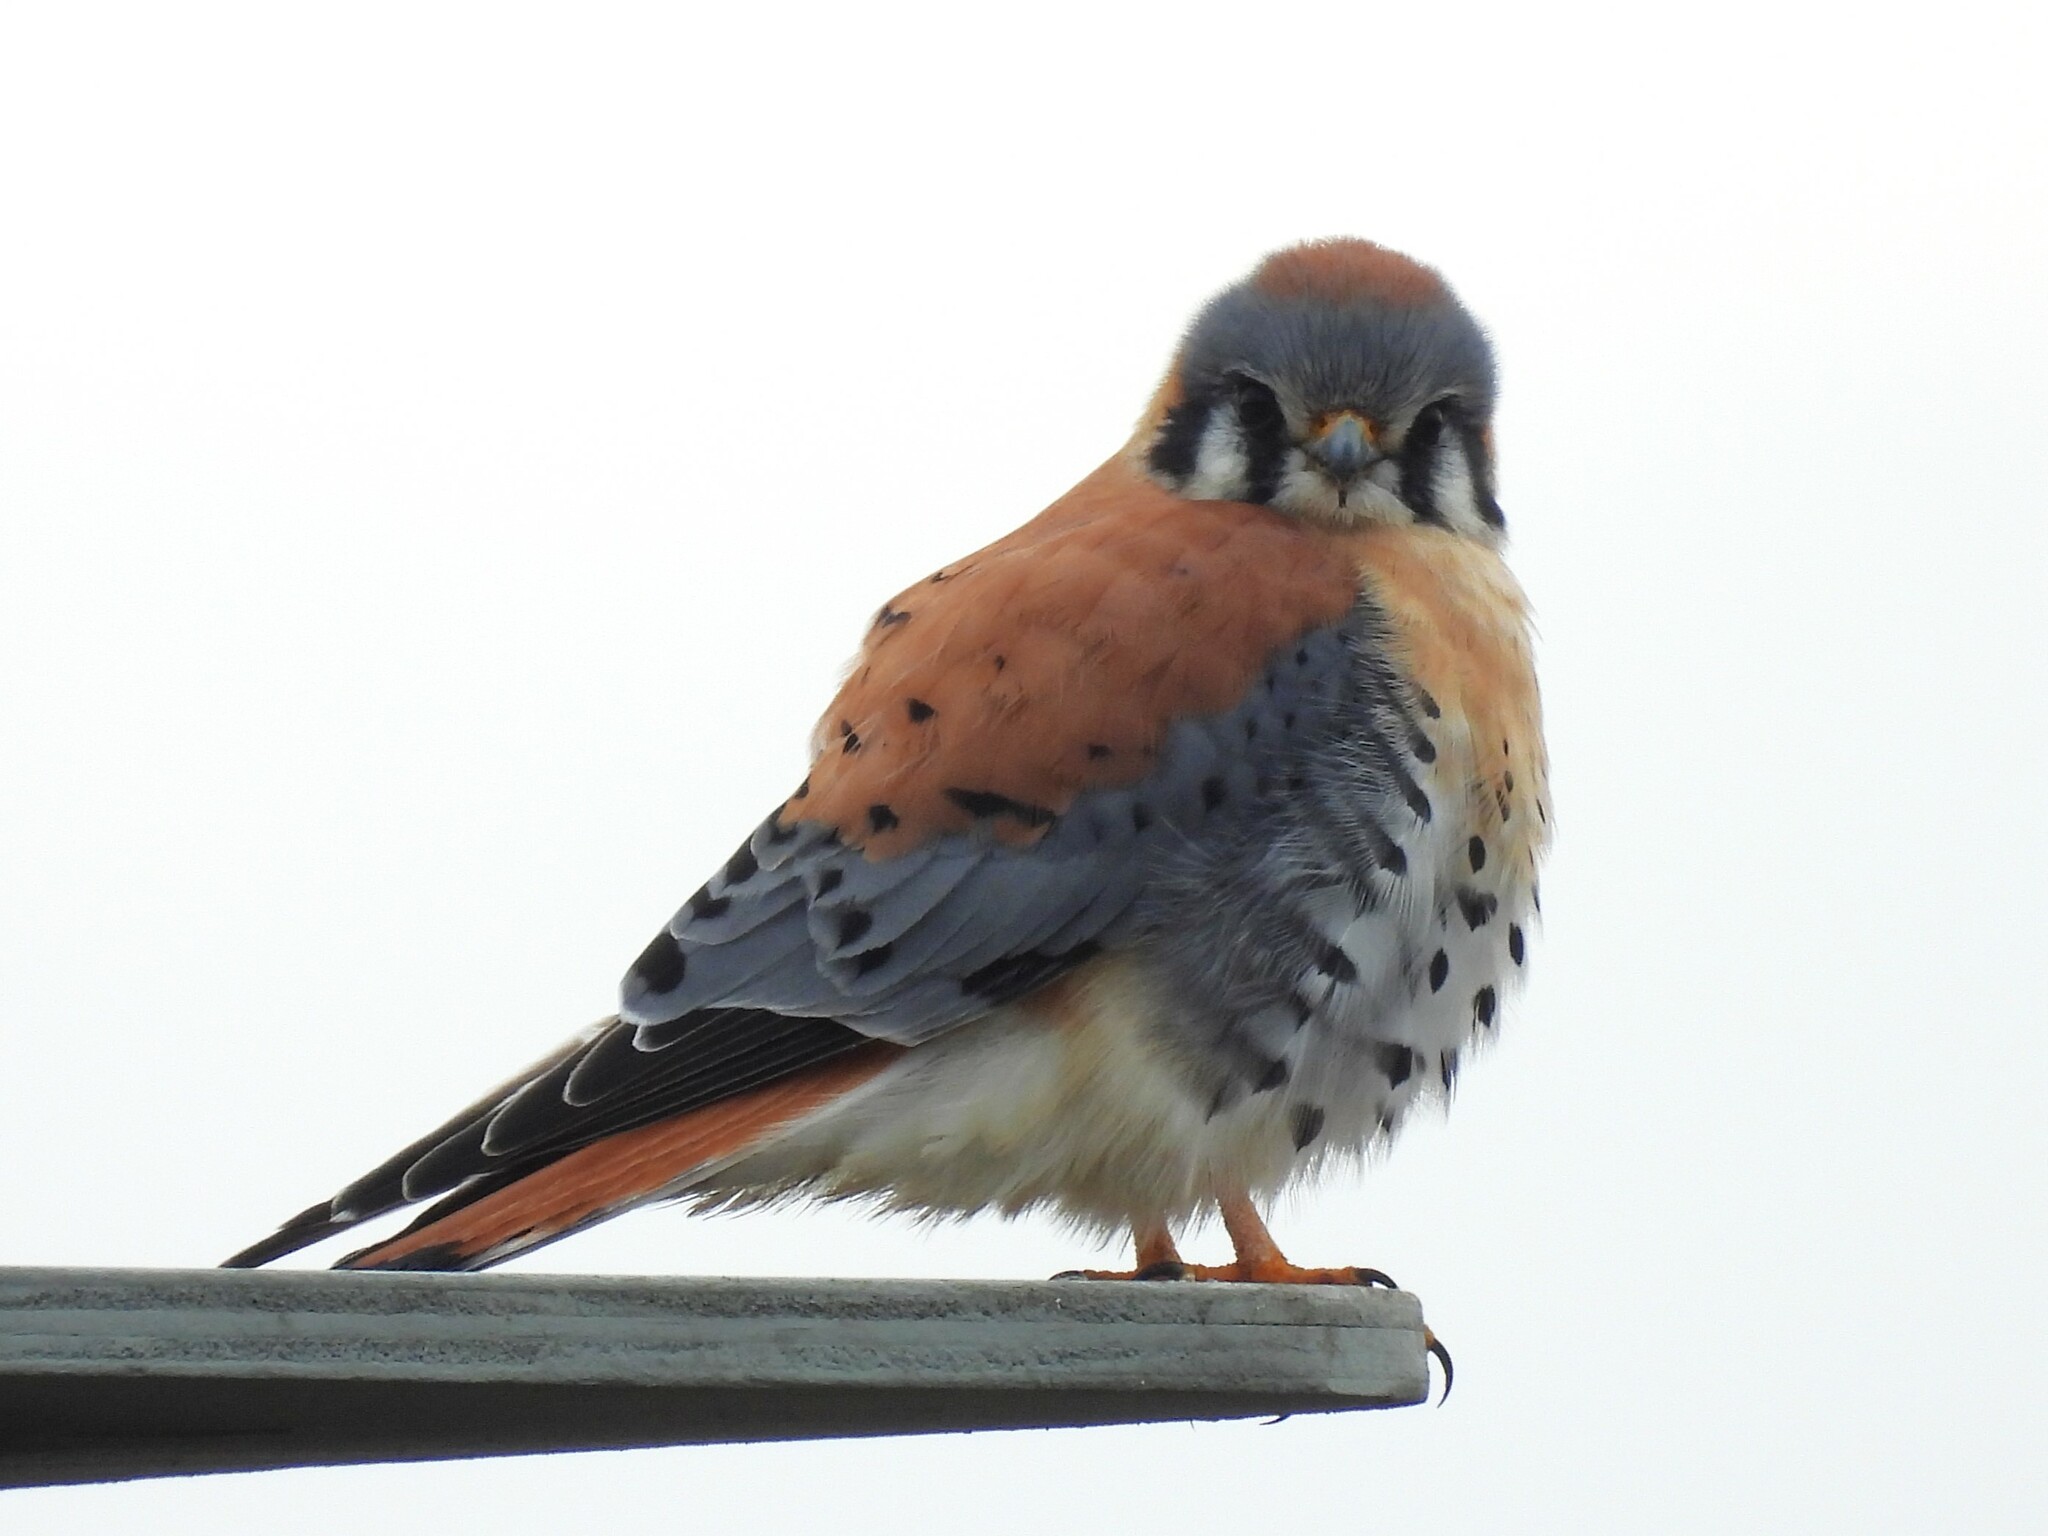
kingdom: Animalia
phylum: Chordata
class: Aves
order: Falconiformes
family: Falconidae
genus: Falco
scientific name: Falco sparverius
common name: American kestrel
